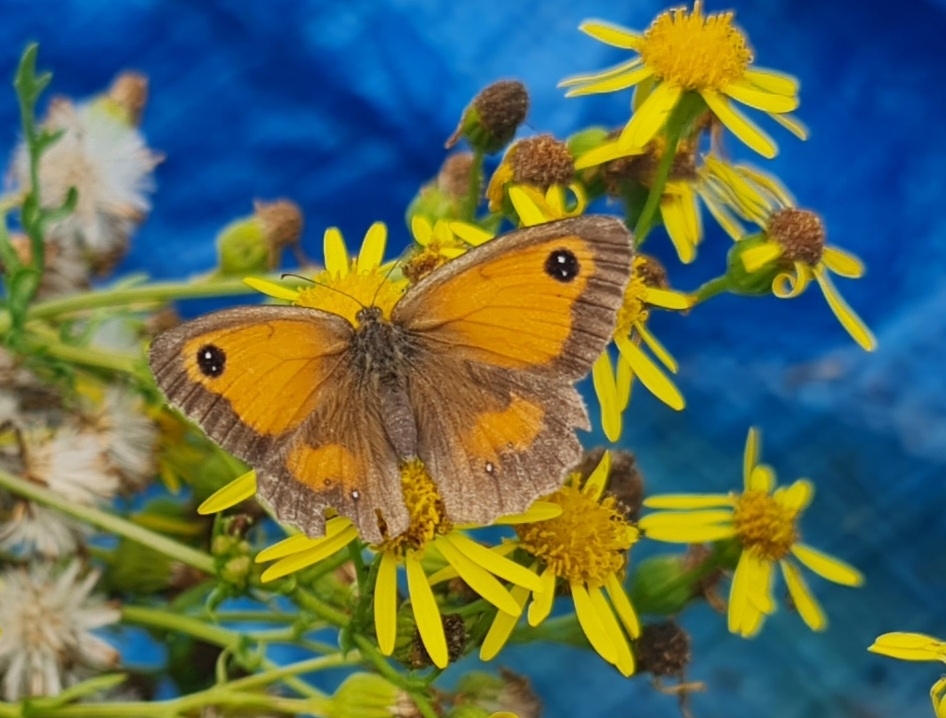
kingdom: Animalia
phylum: Arthropoda
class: Insecta
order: Lepidoptera
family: Nymphalidae
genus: Pyronia
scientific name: Pyronia tithonus
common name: Gatekeeper
